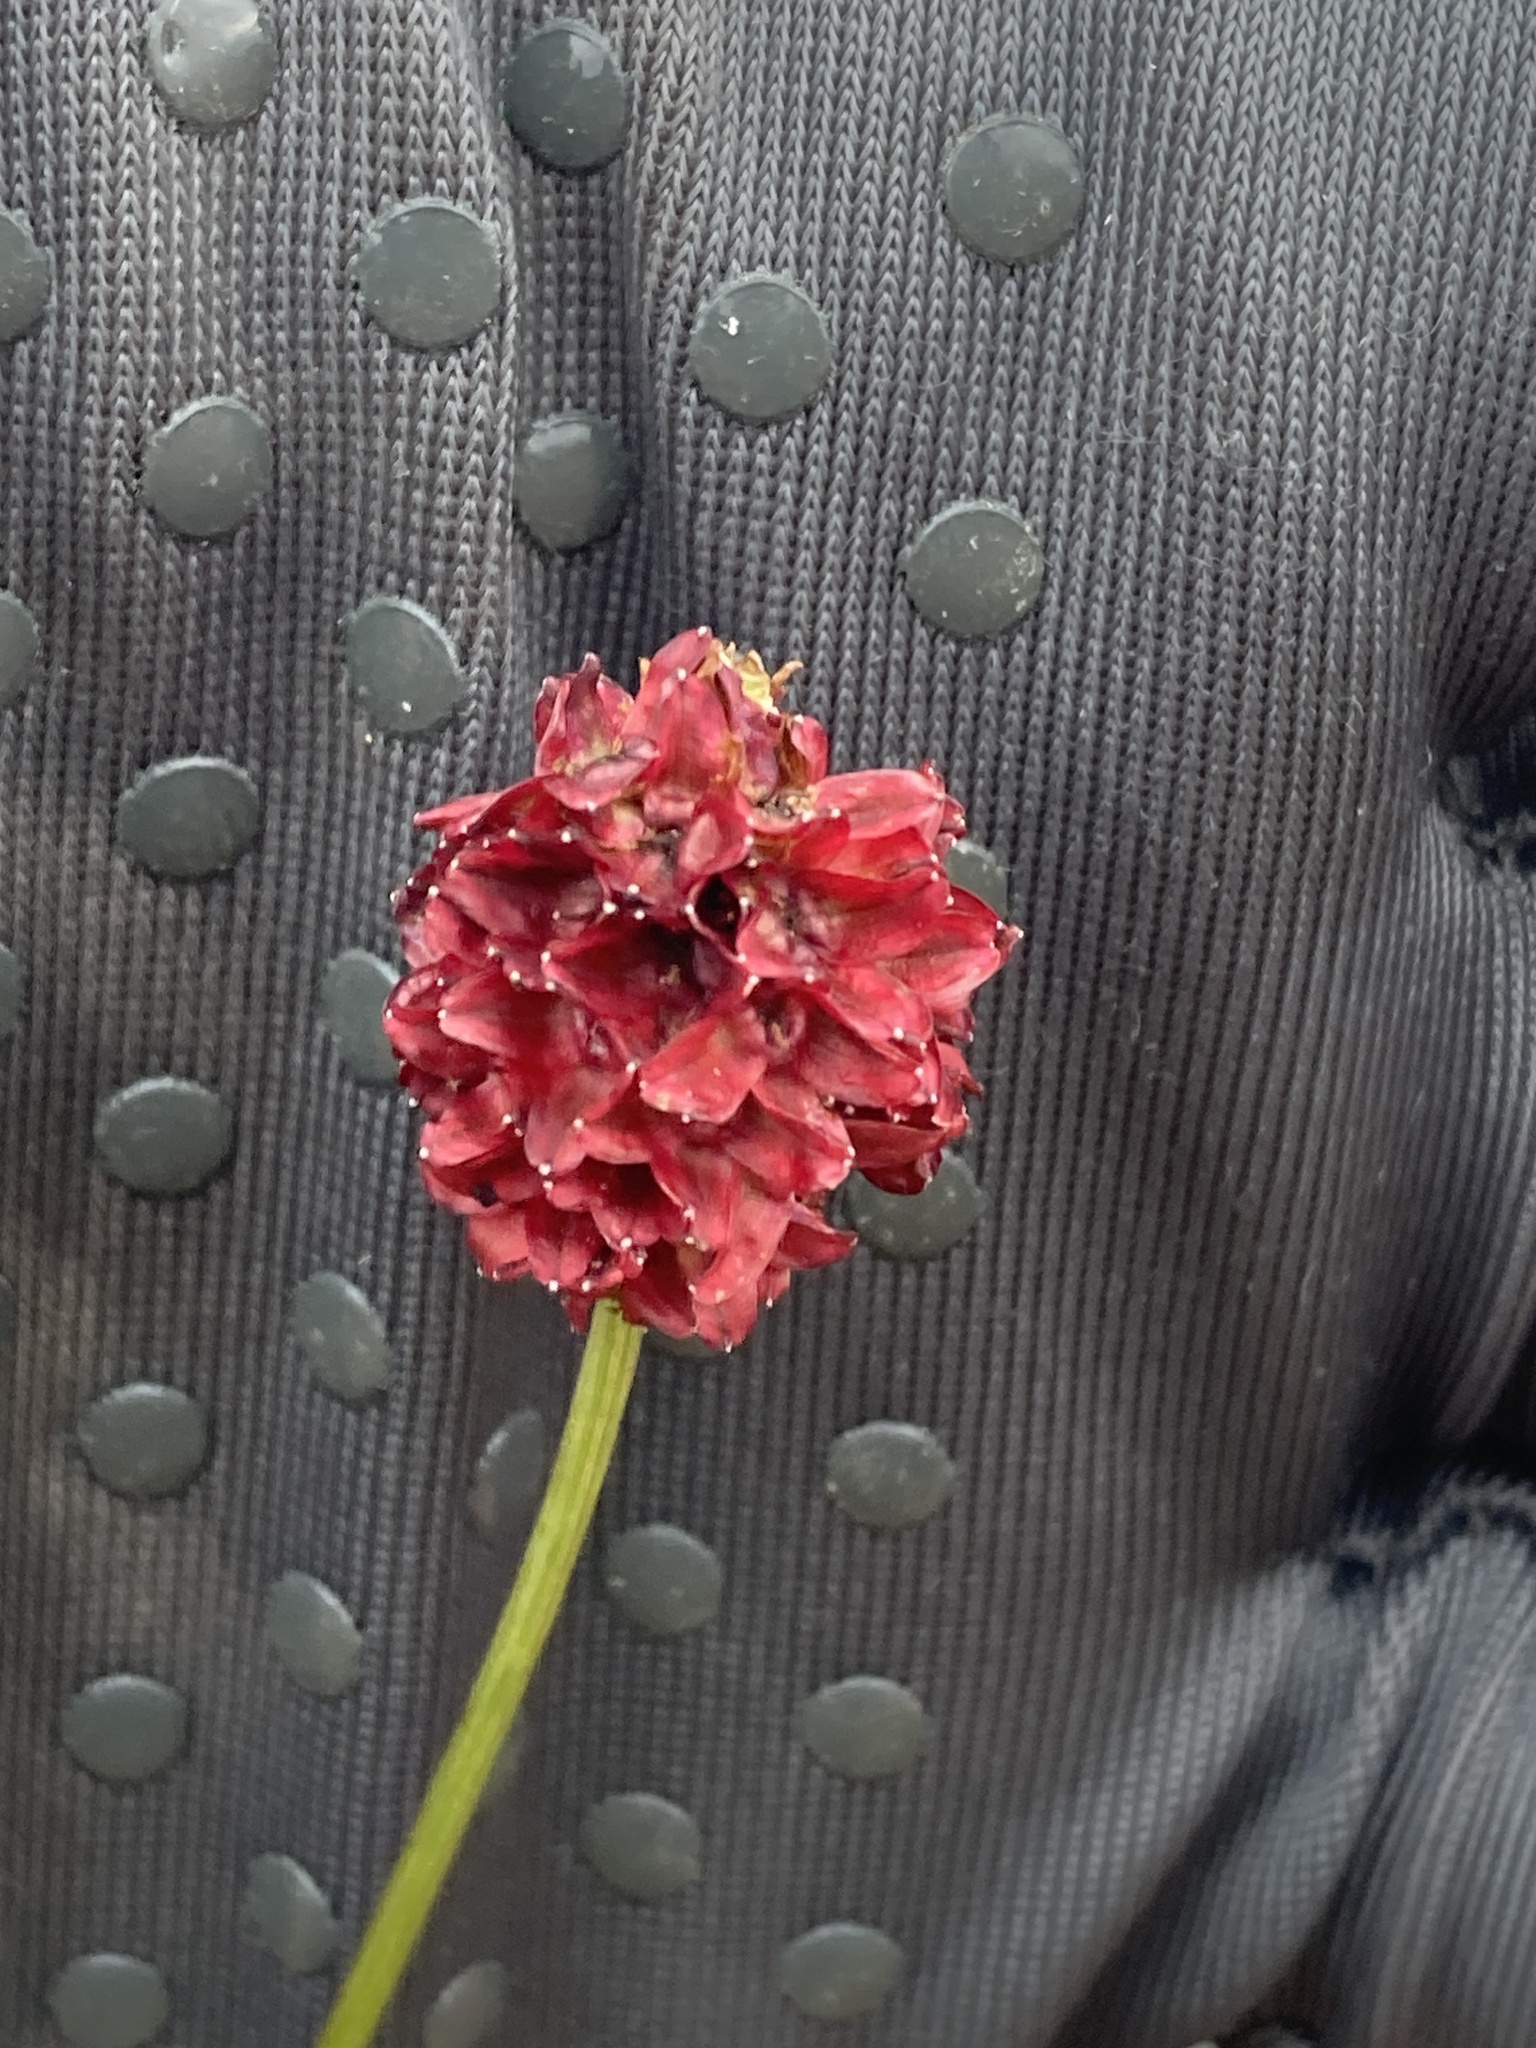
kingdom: Plantae
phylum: Tracheophyta
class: Magnoliopsida
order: Rosales
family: Rosaceae
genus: Sanguisorba
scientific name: Sanguisorba officinalis
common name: Great burnet
